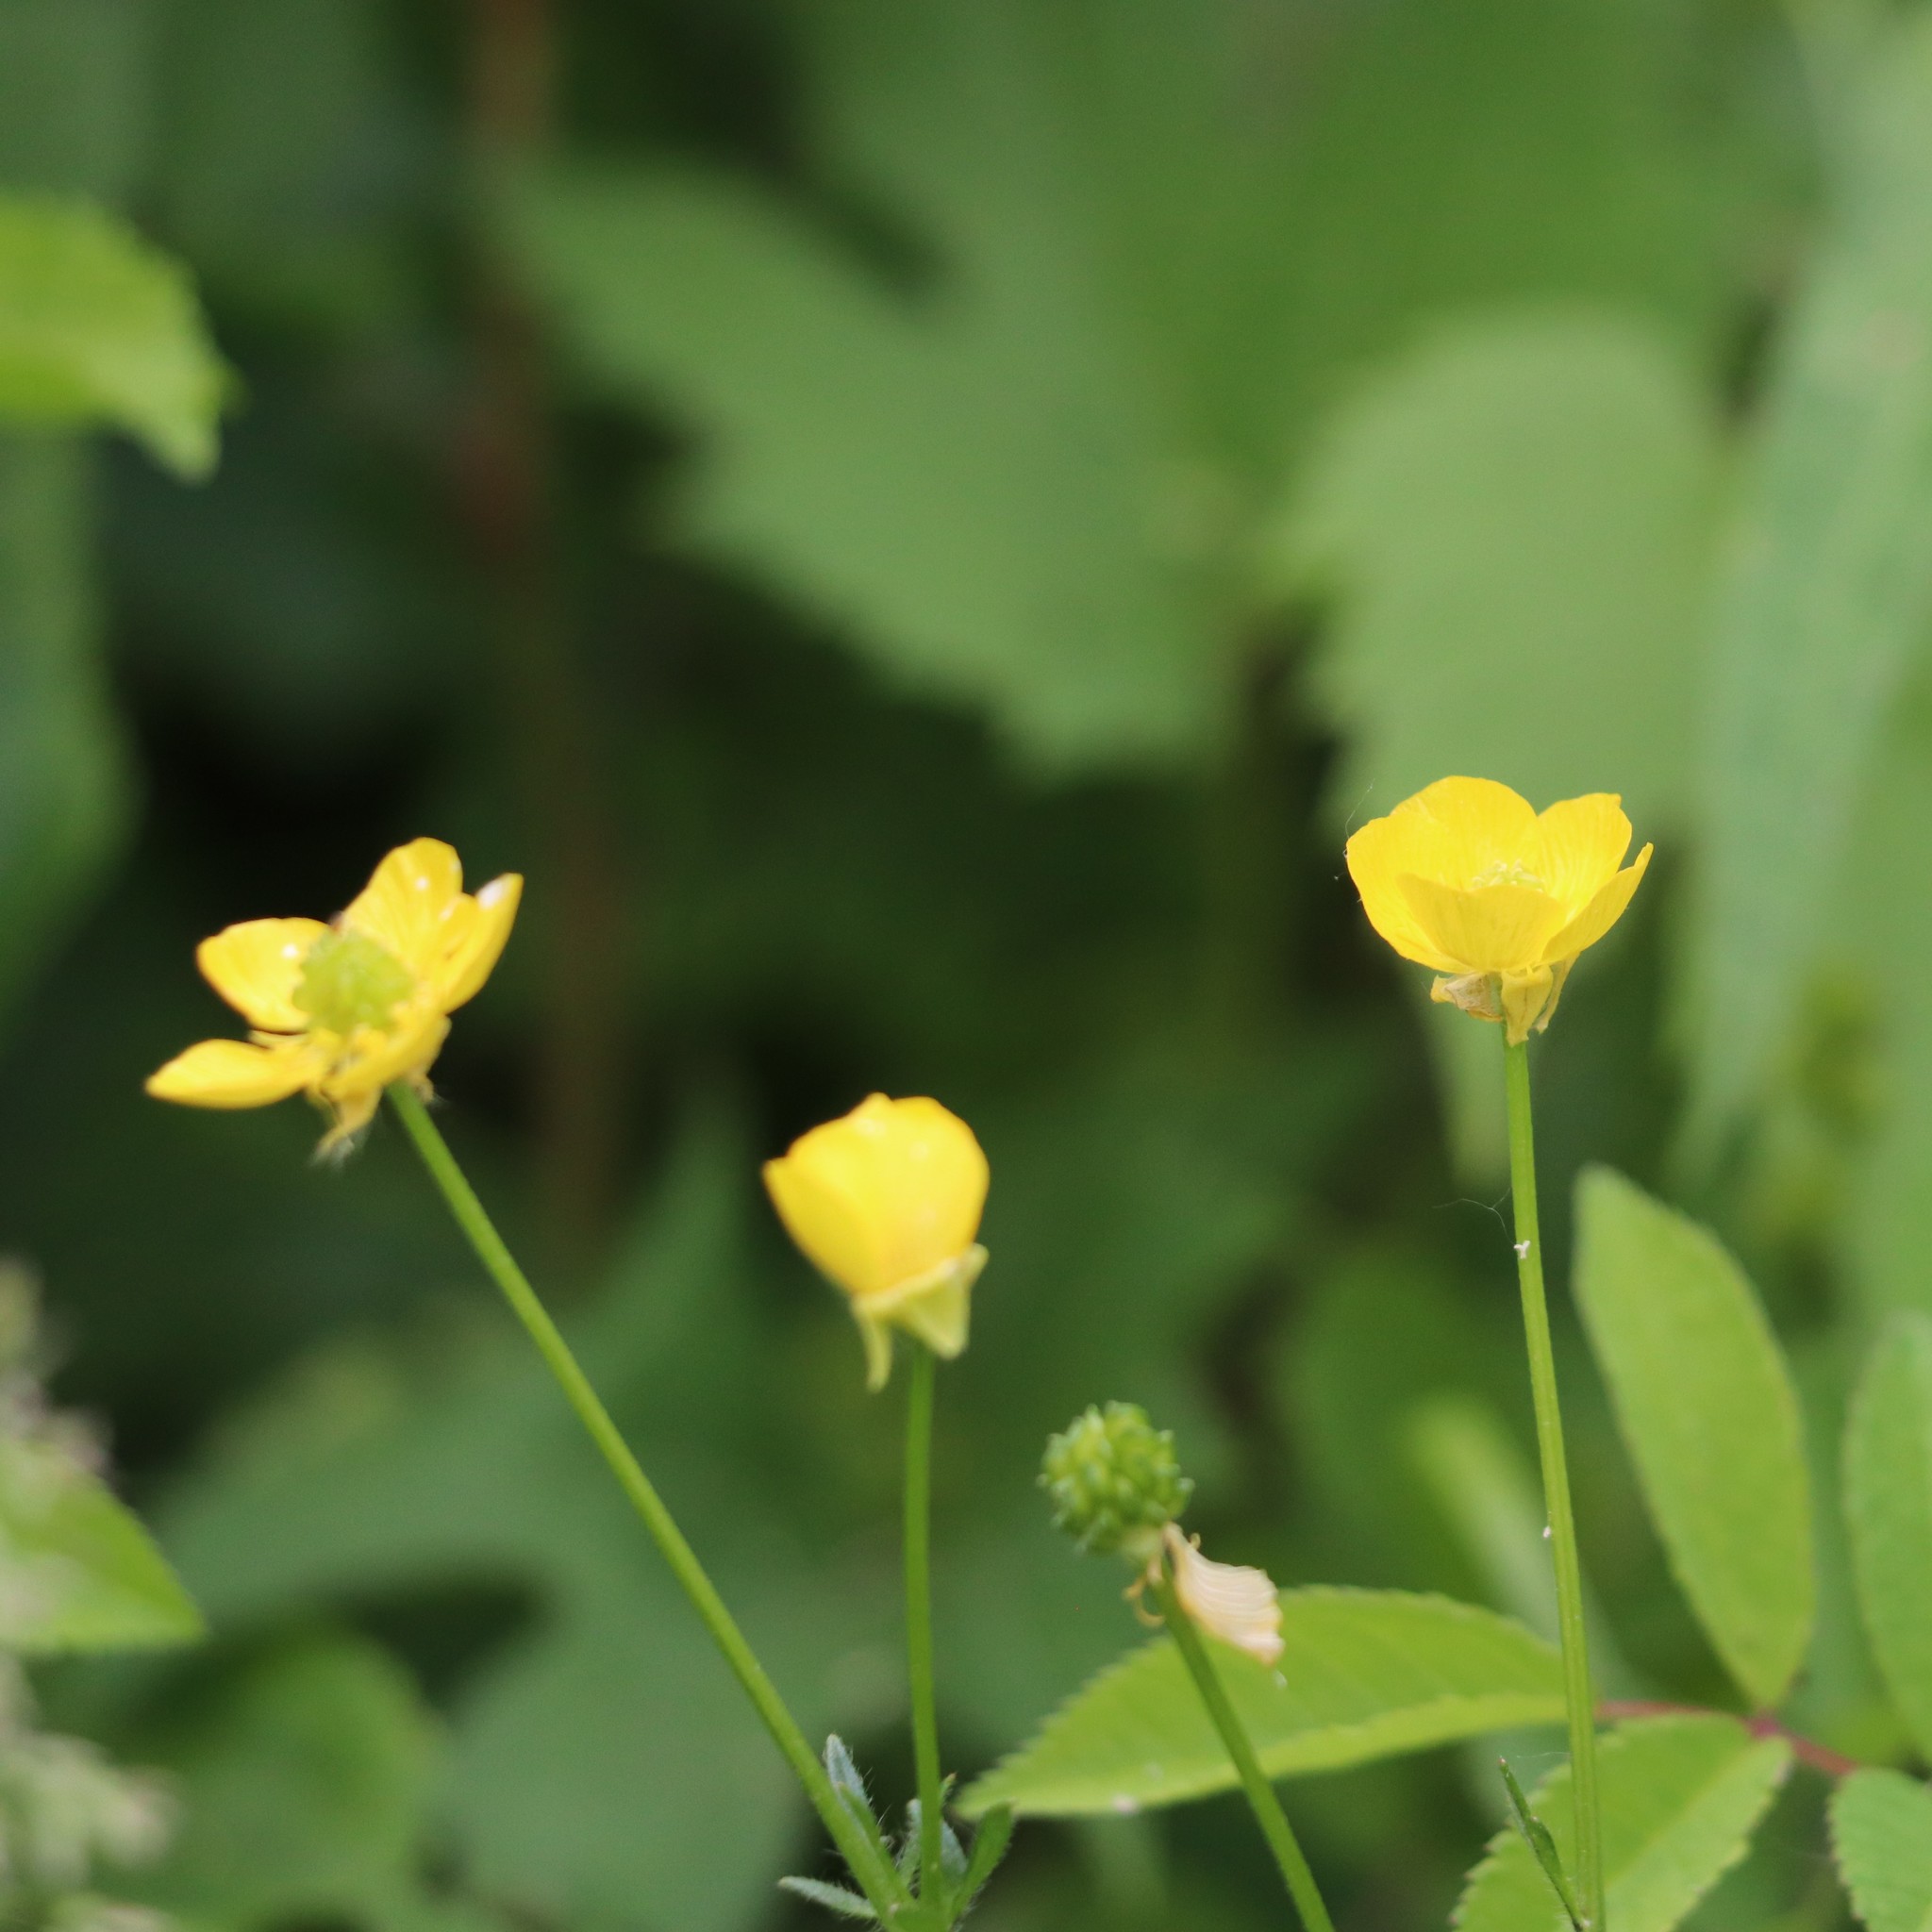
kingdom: Plantae
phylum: Tracheophyta
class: Magnoliopsida
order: Ranunculales
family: Ranunculaceae
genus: Ranunculus
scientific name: Ranunculus bulbosus
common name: Bulbous buttercup
